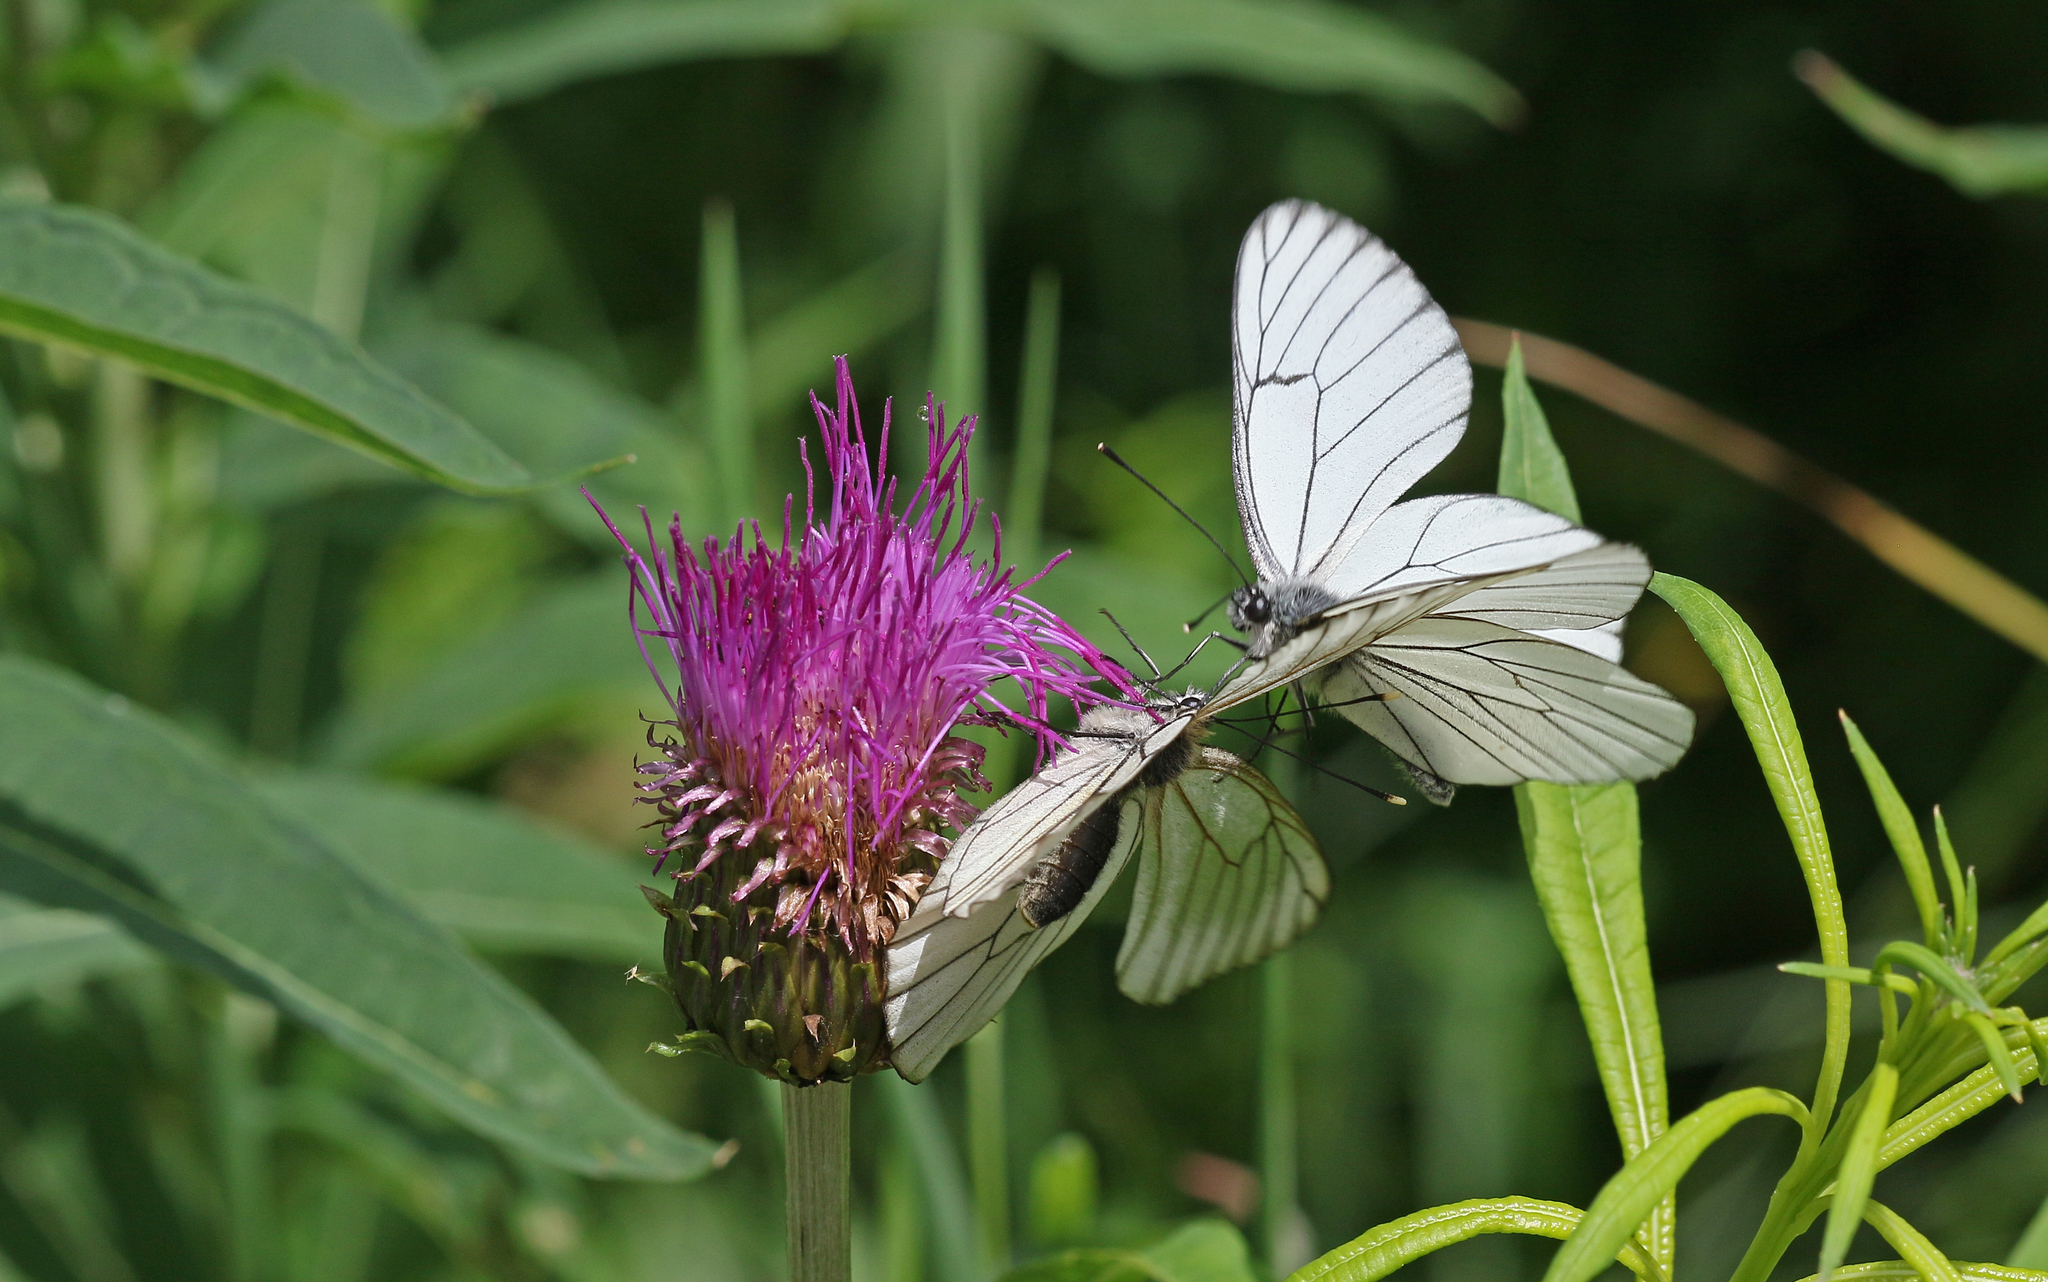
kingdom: Animalia
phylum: Arthropoda
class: Insecta
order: Lepidoptera
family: Pieridae
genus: Aporia
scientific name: Aporia crataegi
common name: Black-veined white
